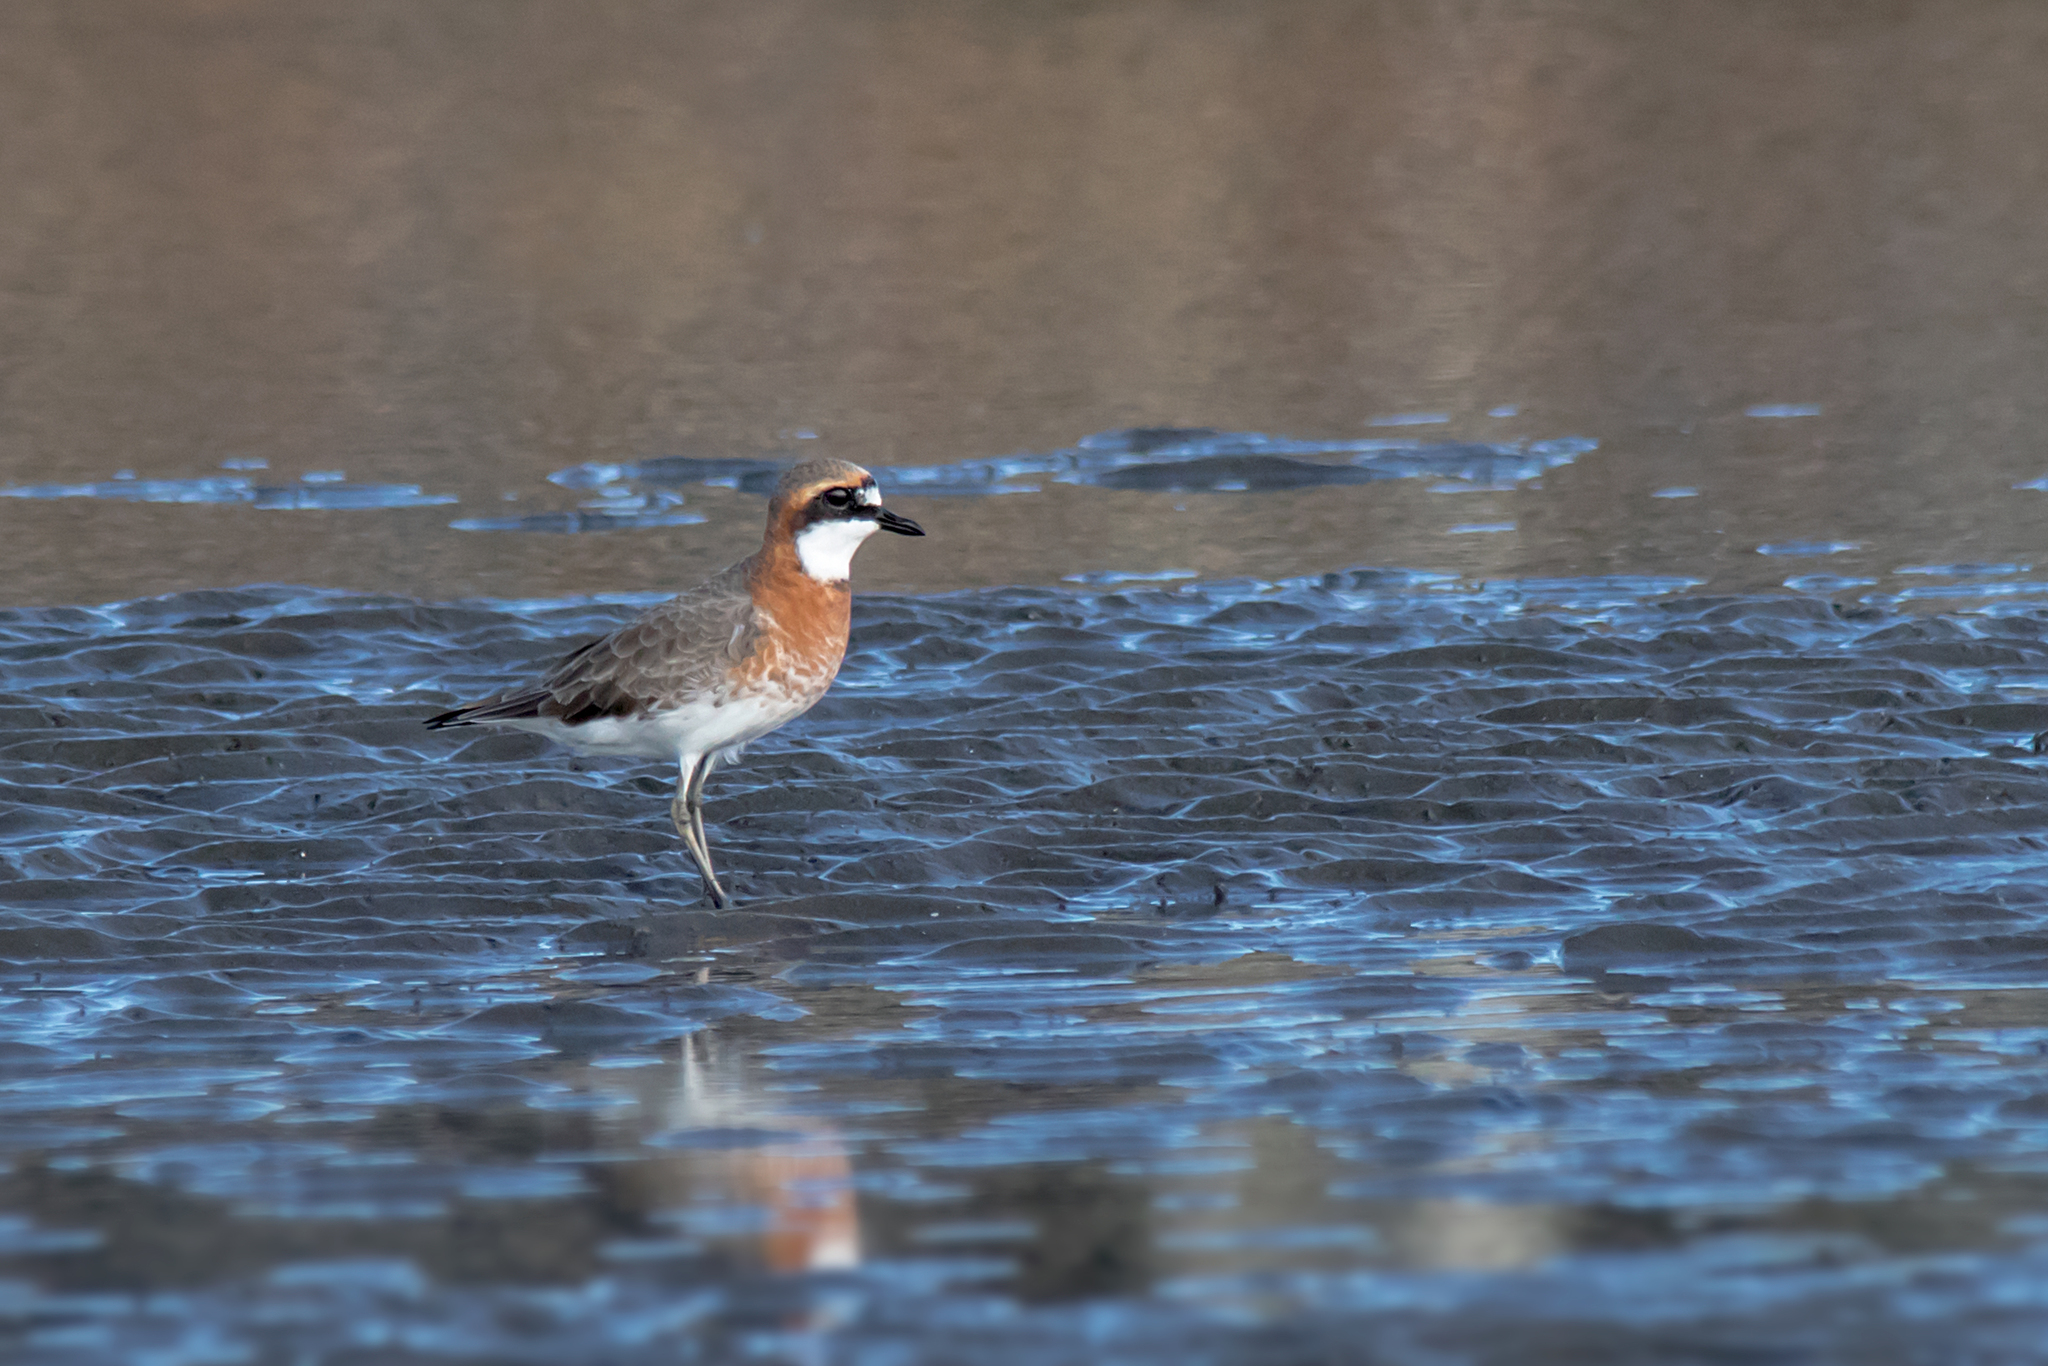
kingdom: Animalia
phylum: Chordata
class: Aves
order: Charadriiformes
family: Charadriidae
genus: Anarhynchus
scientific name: Anarhynchus
